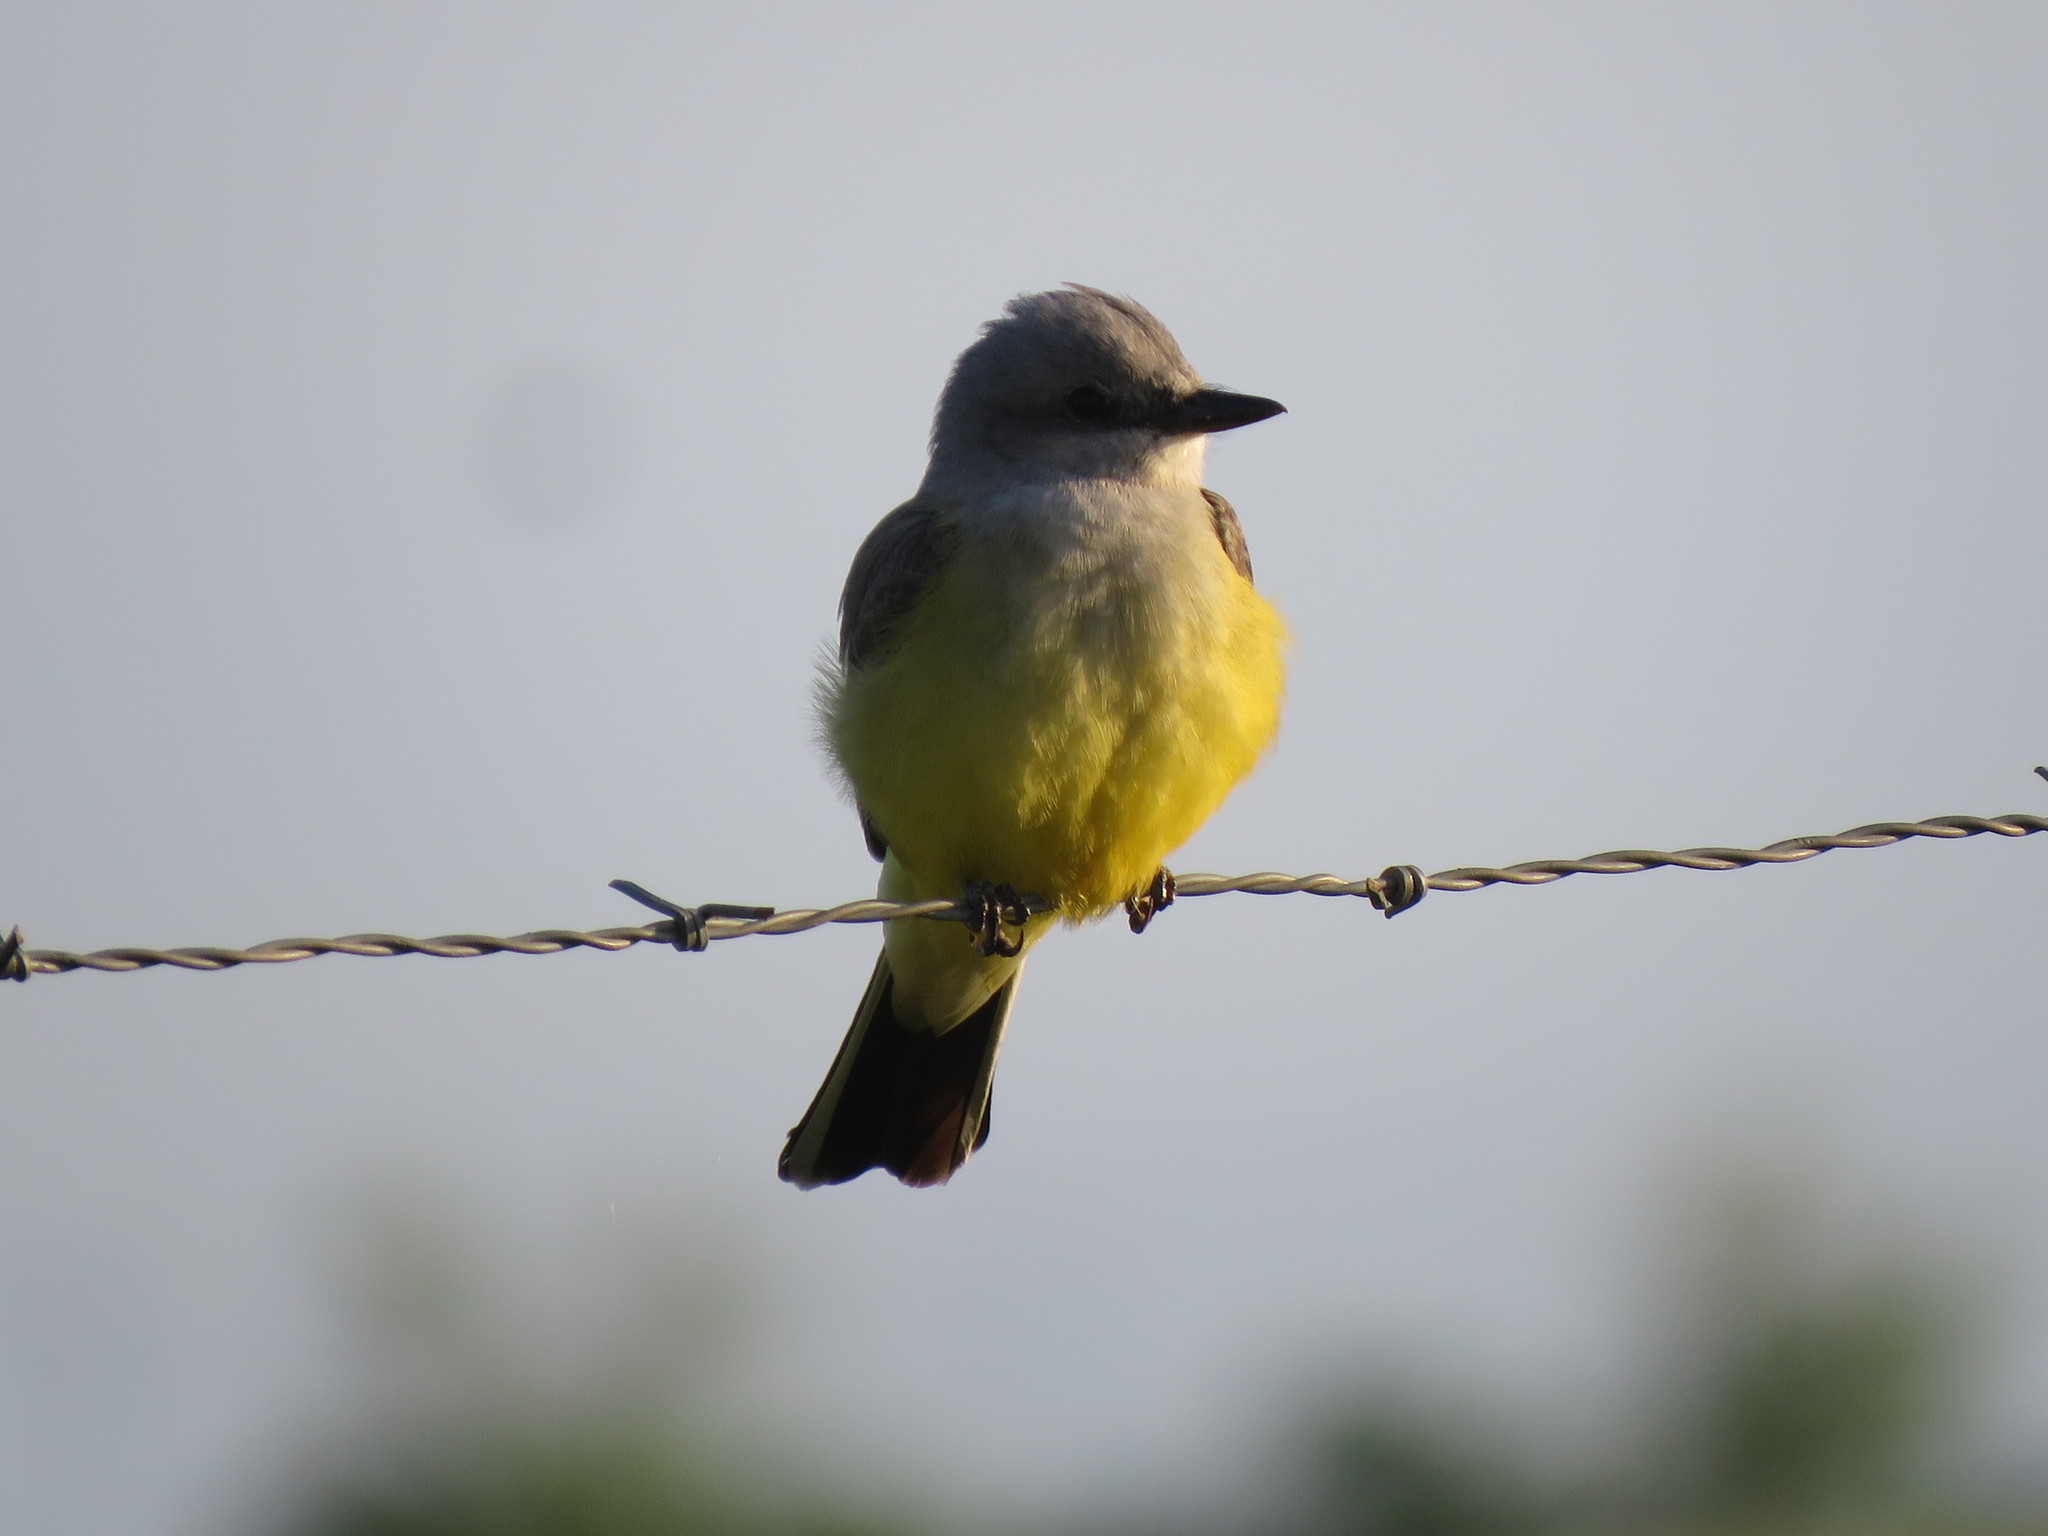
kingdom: Animalia
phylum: Chordata
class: Aves
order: Passeriformes
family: Tyrannidae
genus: Tyrannus
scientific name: Tyrannus verticalis
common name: Western kingbird
